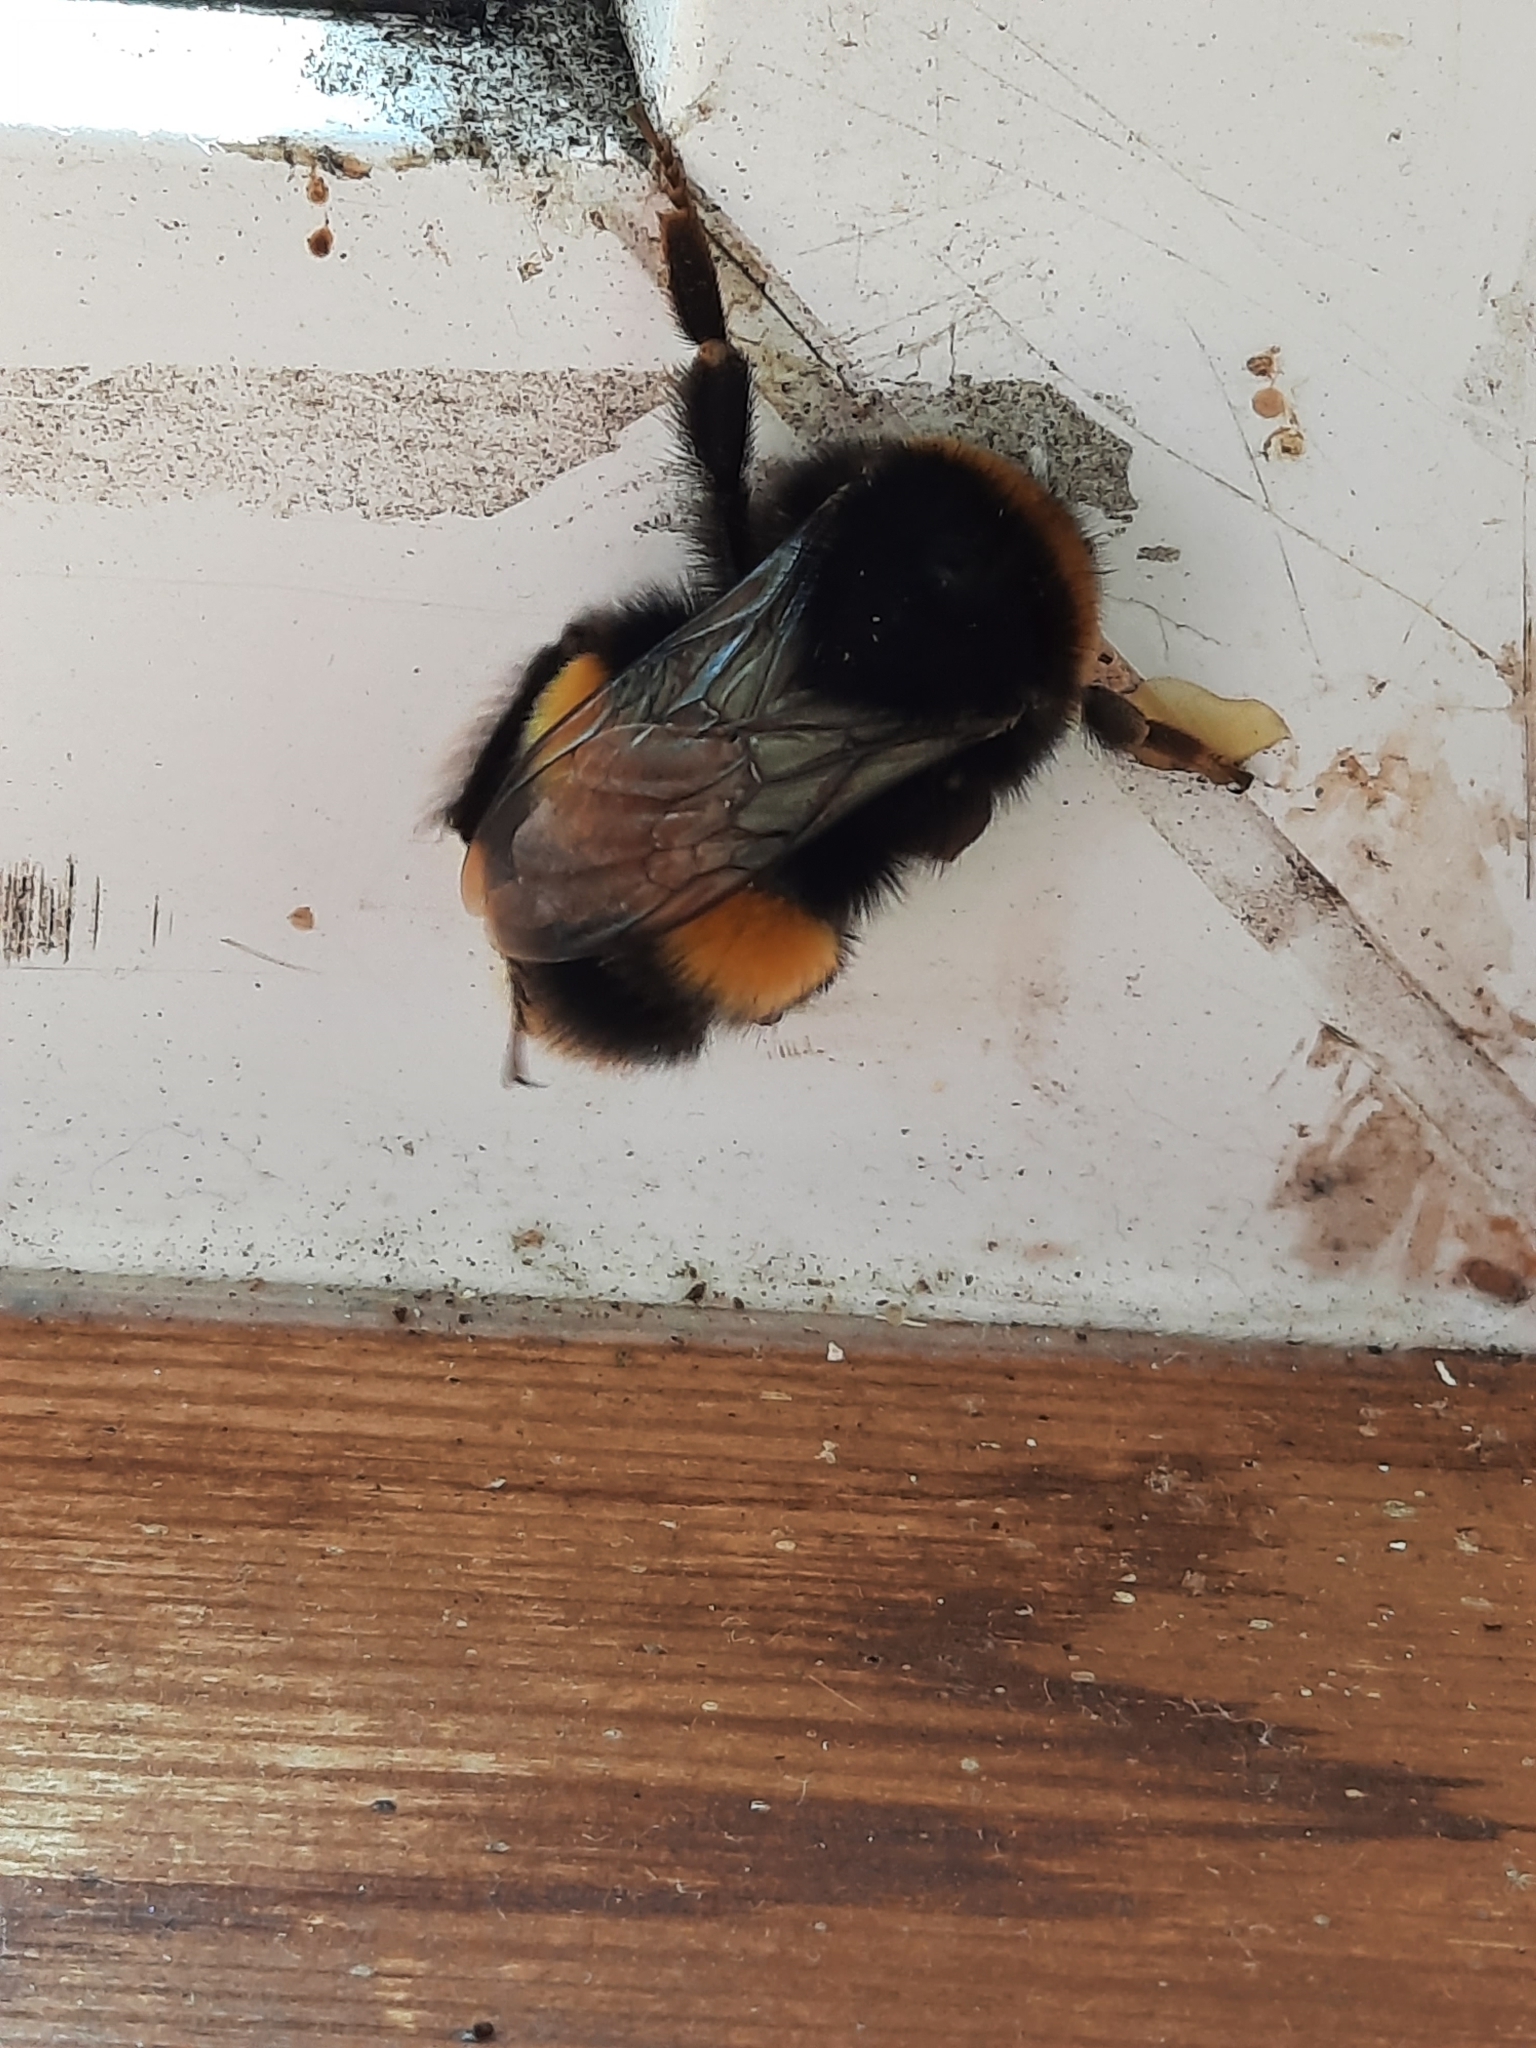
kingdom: Animalia
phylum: Arthropoda
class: Insecta
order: Hymenoptera
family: Apidae
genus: Bombus
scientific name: Bombus pascuorum
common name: Common carder bee
